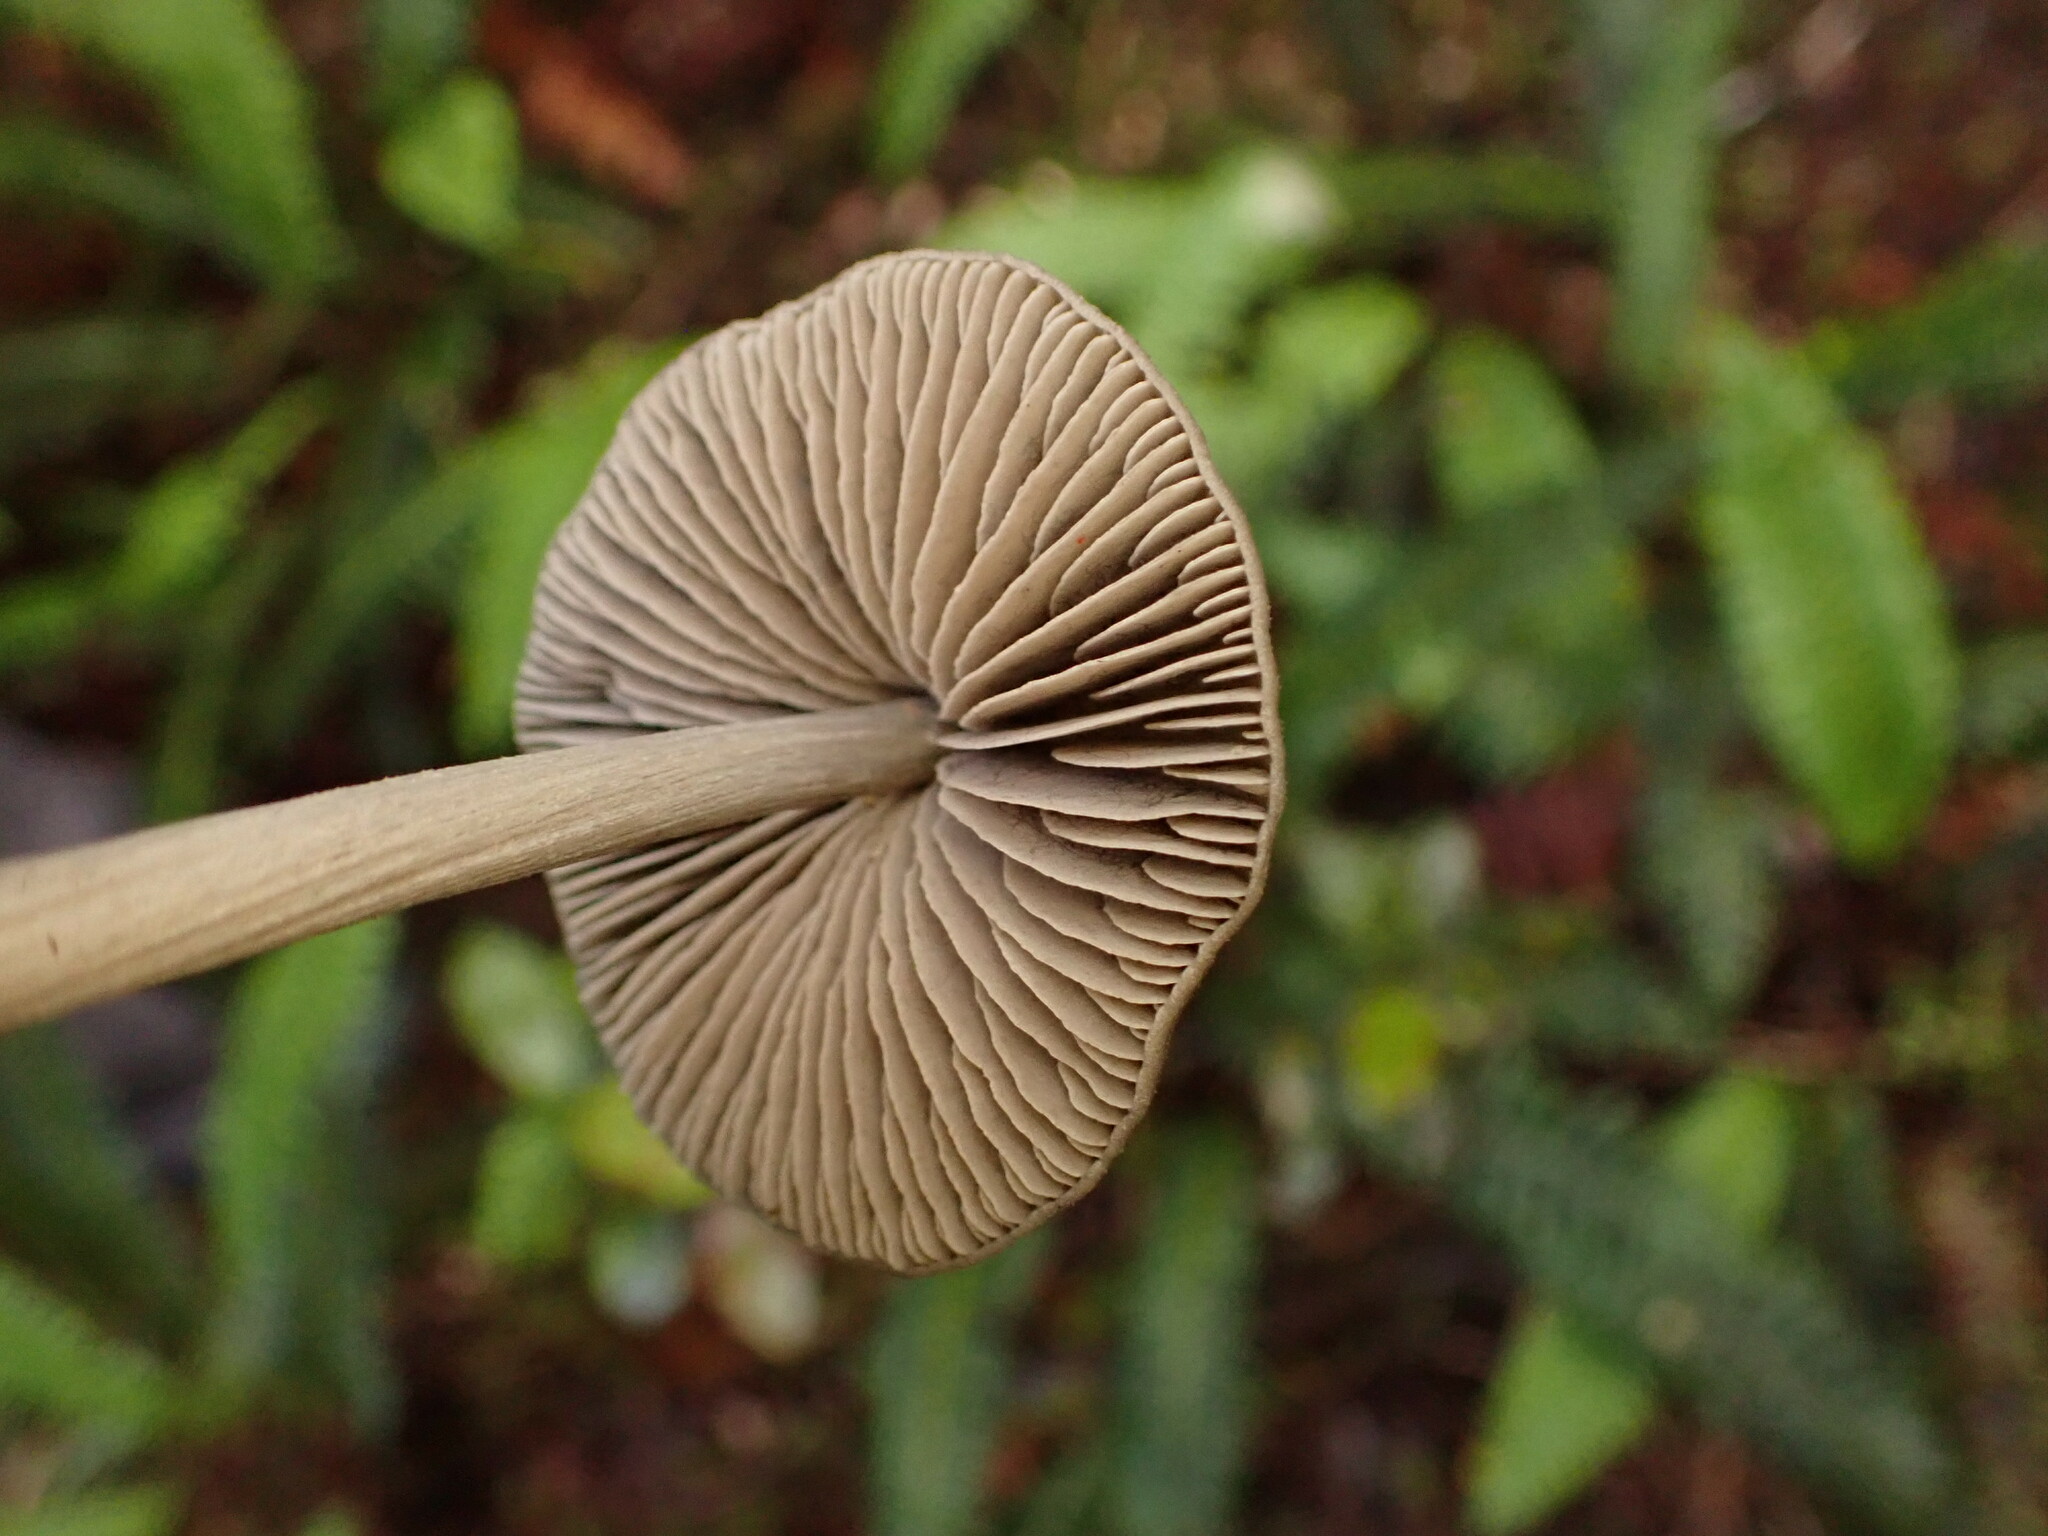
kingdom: Fungi
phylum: Basidiomycota
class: Agaricomycetes
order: Agaricales
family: Entolomataceae
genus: Entoloma
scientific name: Entoloma canoconicum
